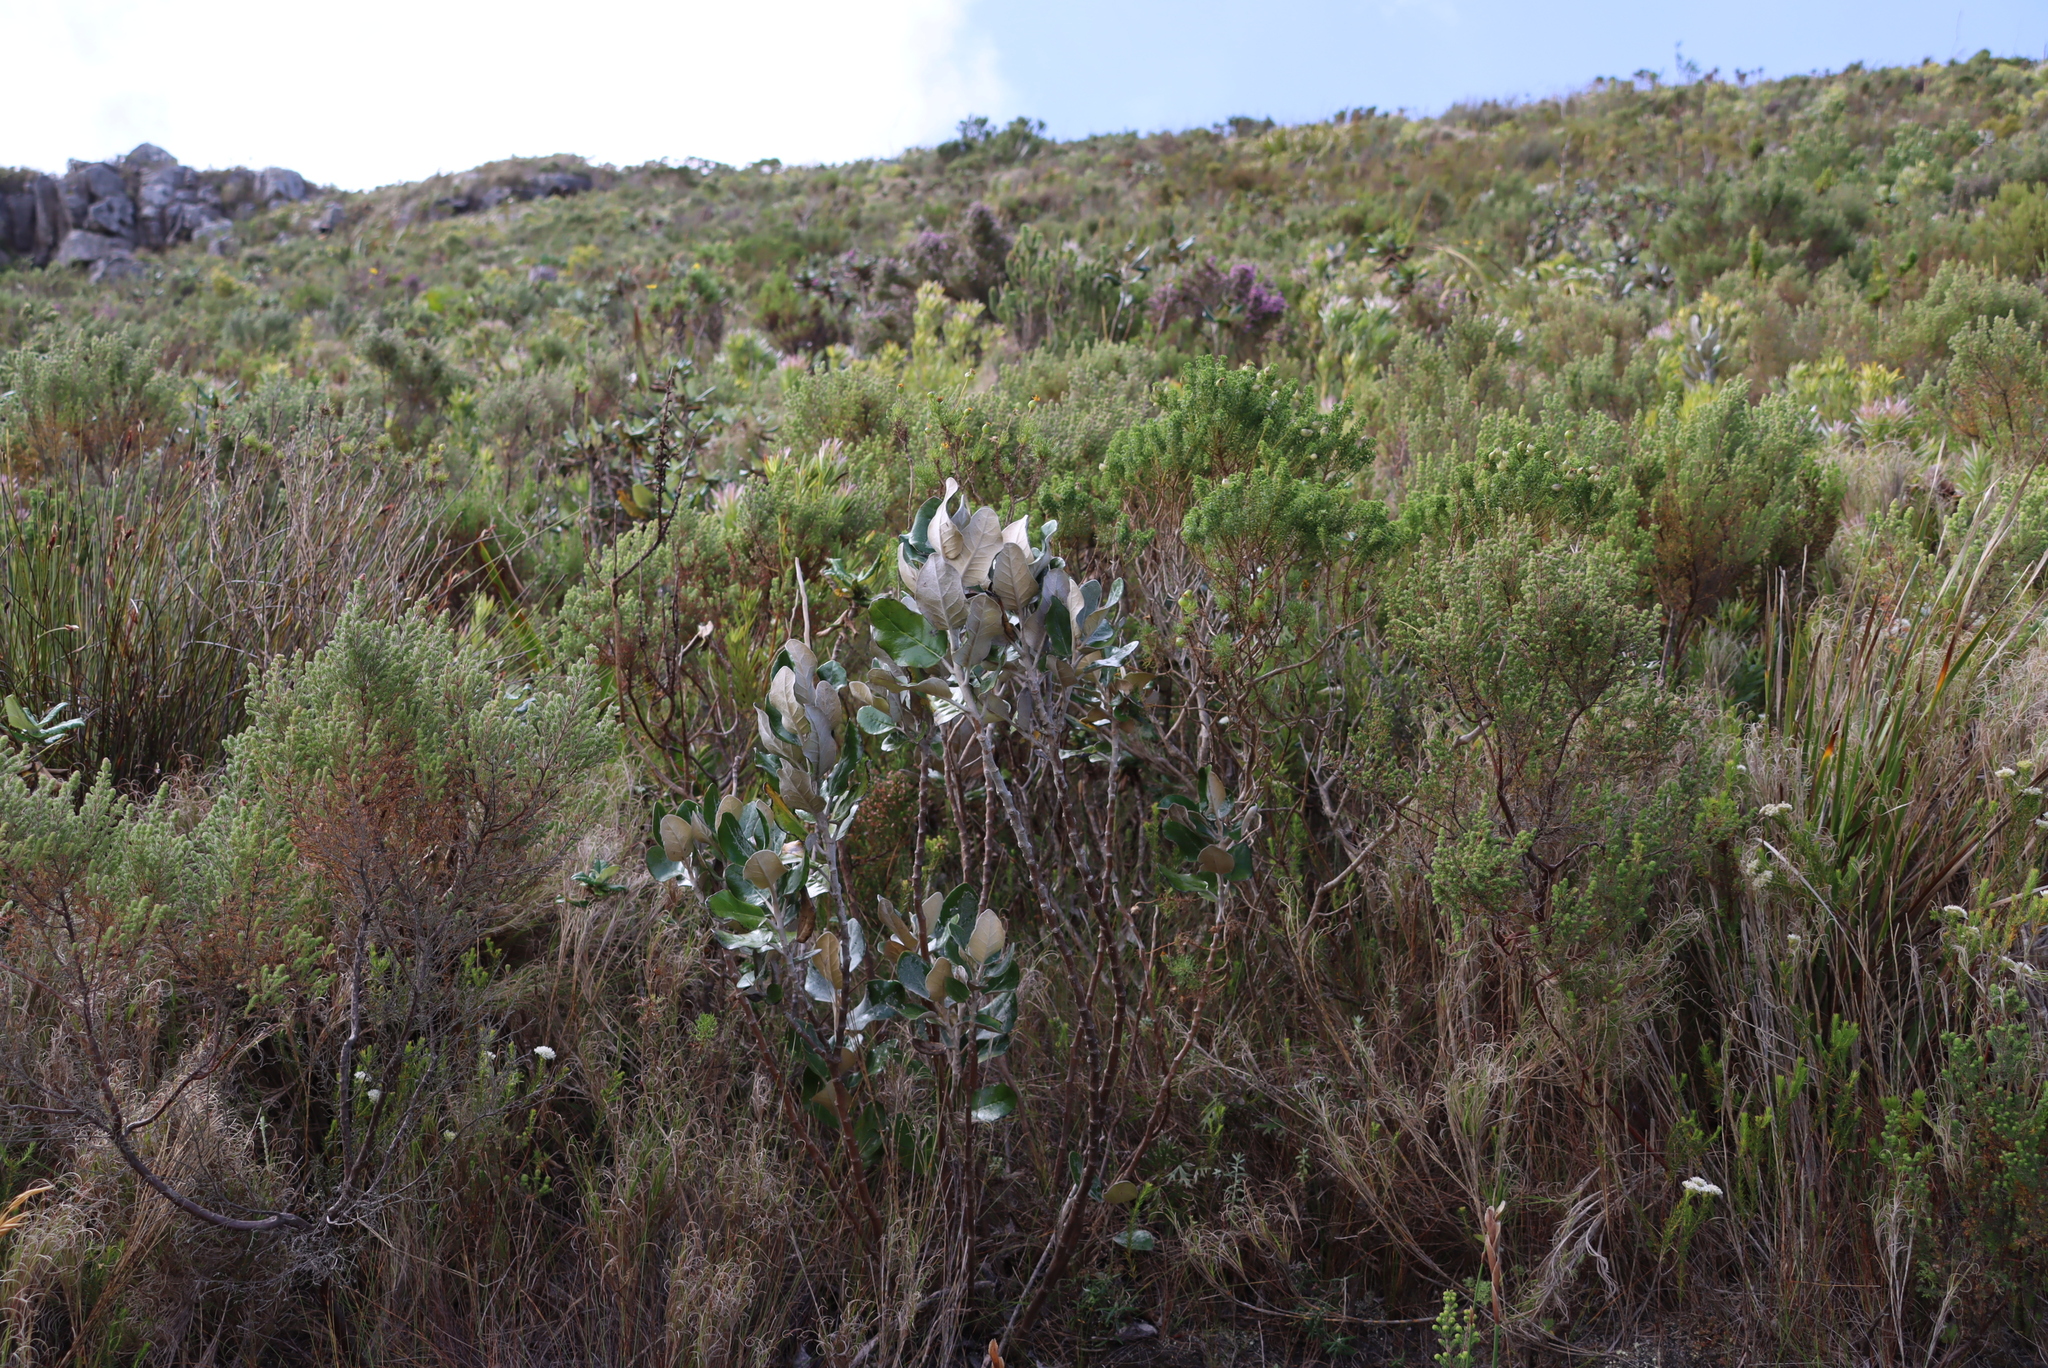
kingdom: Plantae
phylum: Tracheophyta
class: Magnoliopsida
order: Asterales
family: Asteraceae
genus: Capelio
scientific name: Capelio tabularis
